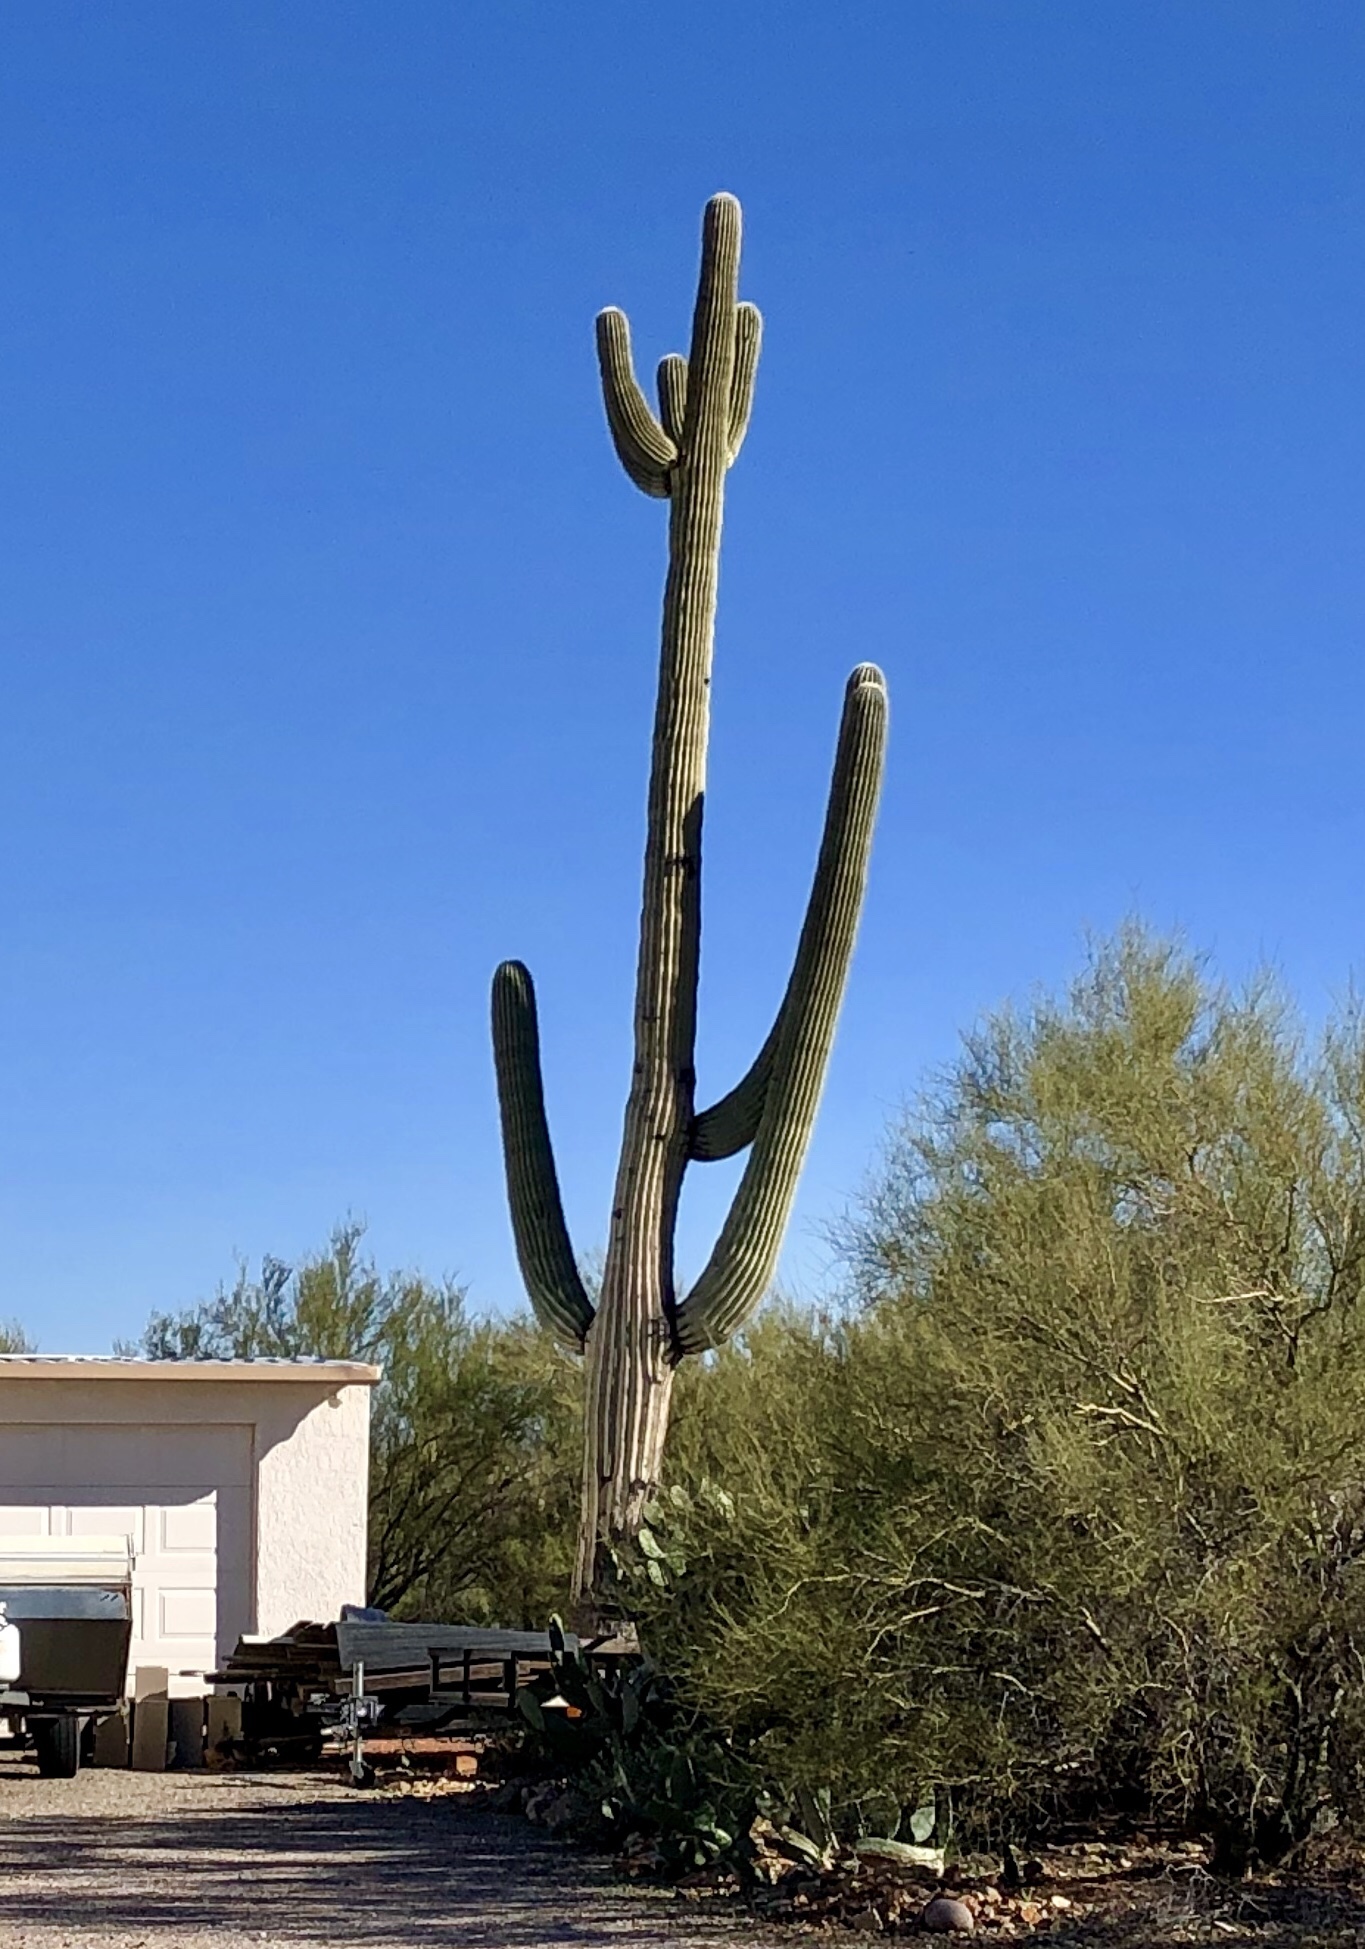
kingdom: Plantae
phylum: Tracheophyta
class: Magnoliopsida
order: Caryophyllales
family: Cactaceae
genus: Carnegiea
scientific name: Carnegiea gigantea
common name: Saguaro
